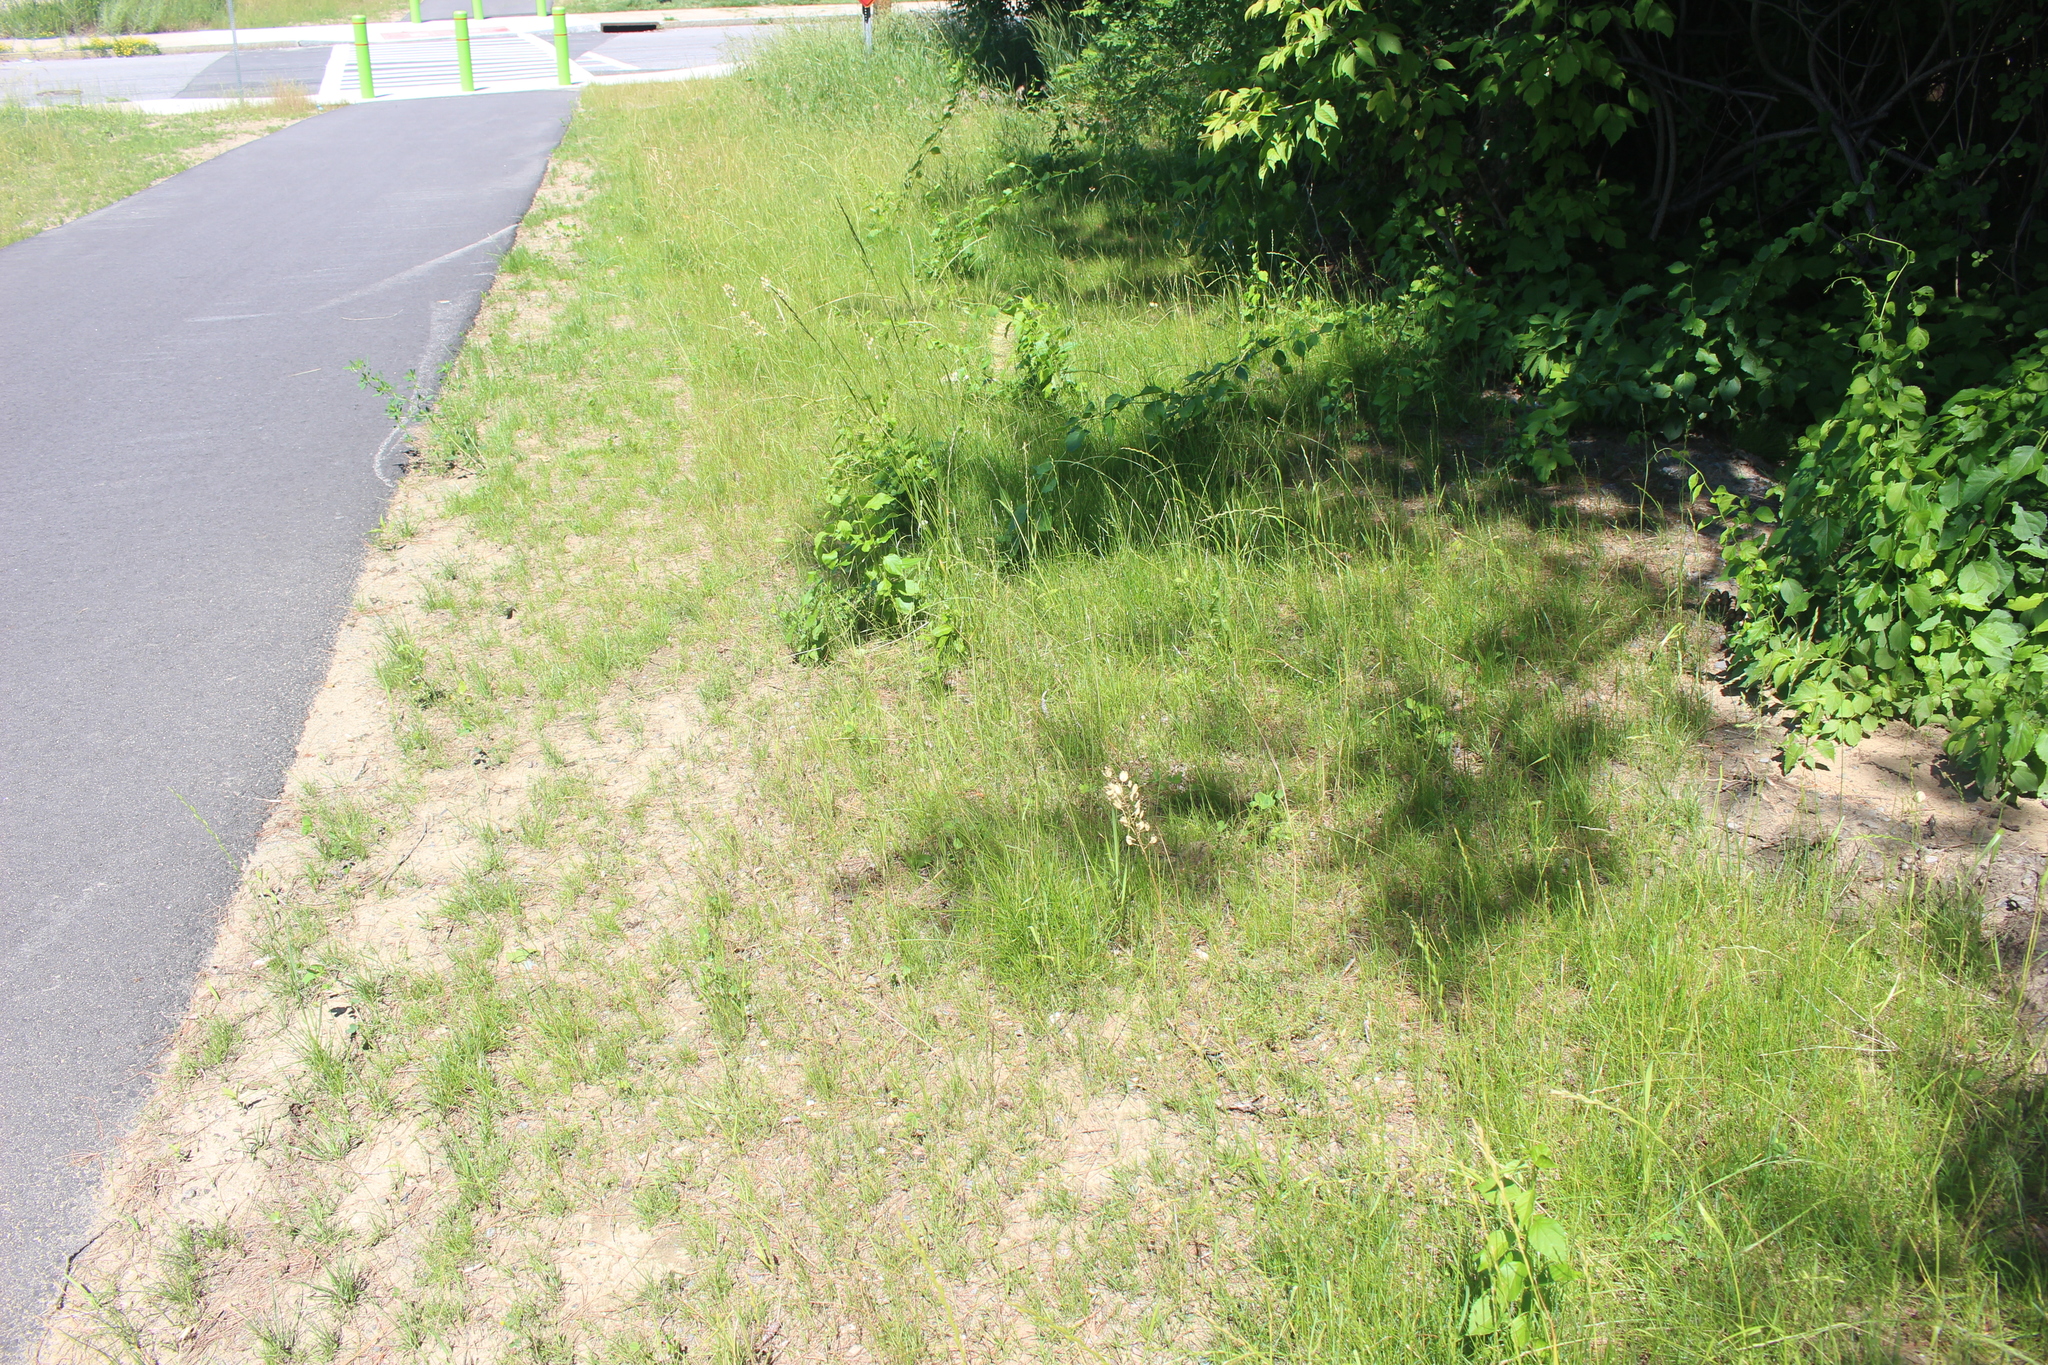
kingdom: Plantae
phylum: Tracheophyta
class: Magnoliopsida
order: Brassicales
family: Brassicaceae
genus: Thlaspi
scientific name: Thlaspi arvense
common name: Field pennycress
